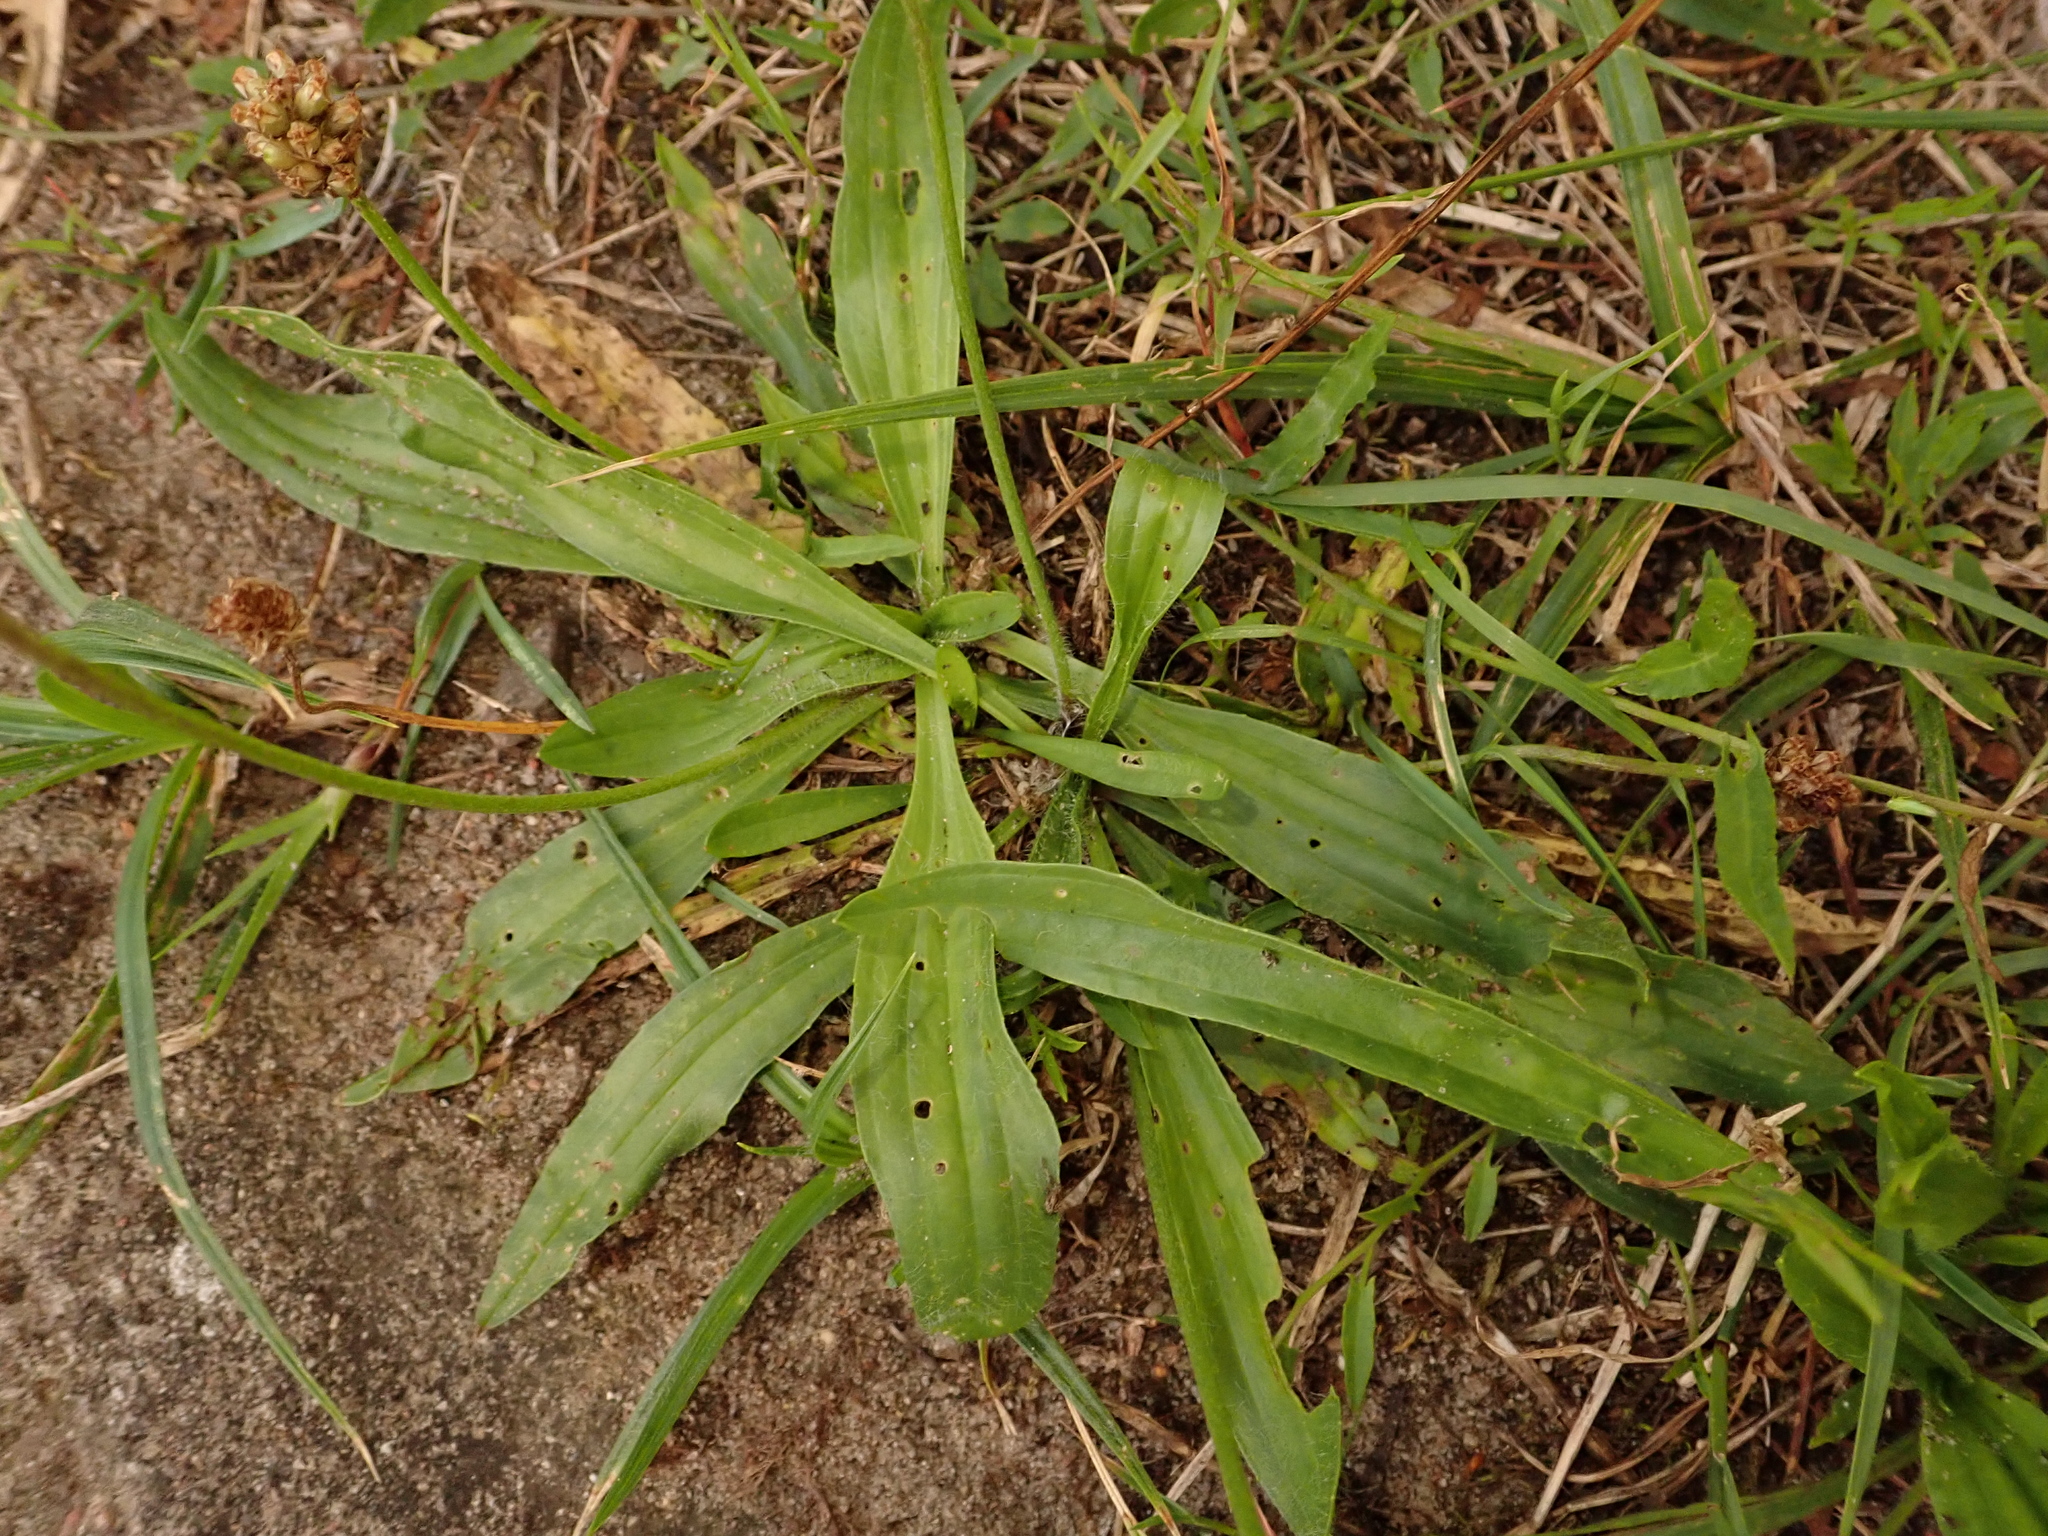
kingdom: Plantae
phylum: Tracheophyta
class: Magnoliopsida
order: Lamiales
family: Plantaginaceae
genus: Plantago
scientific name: Plantago lanceolata
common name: Ribwort plantain
